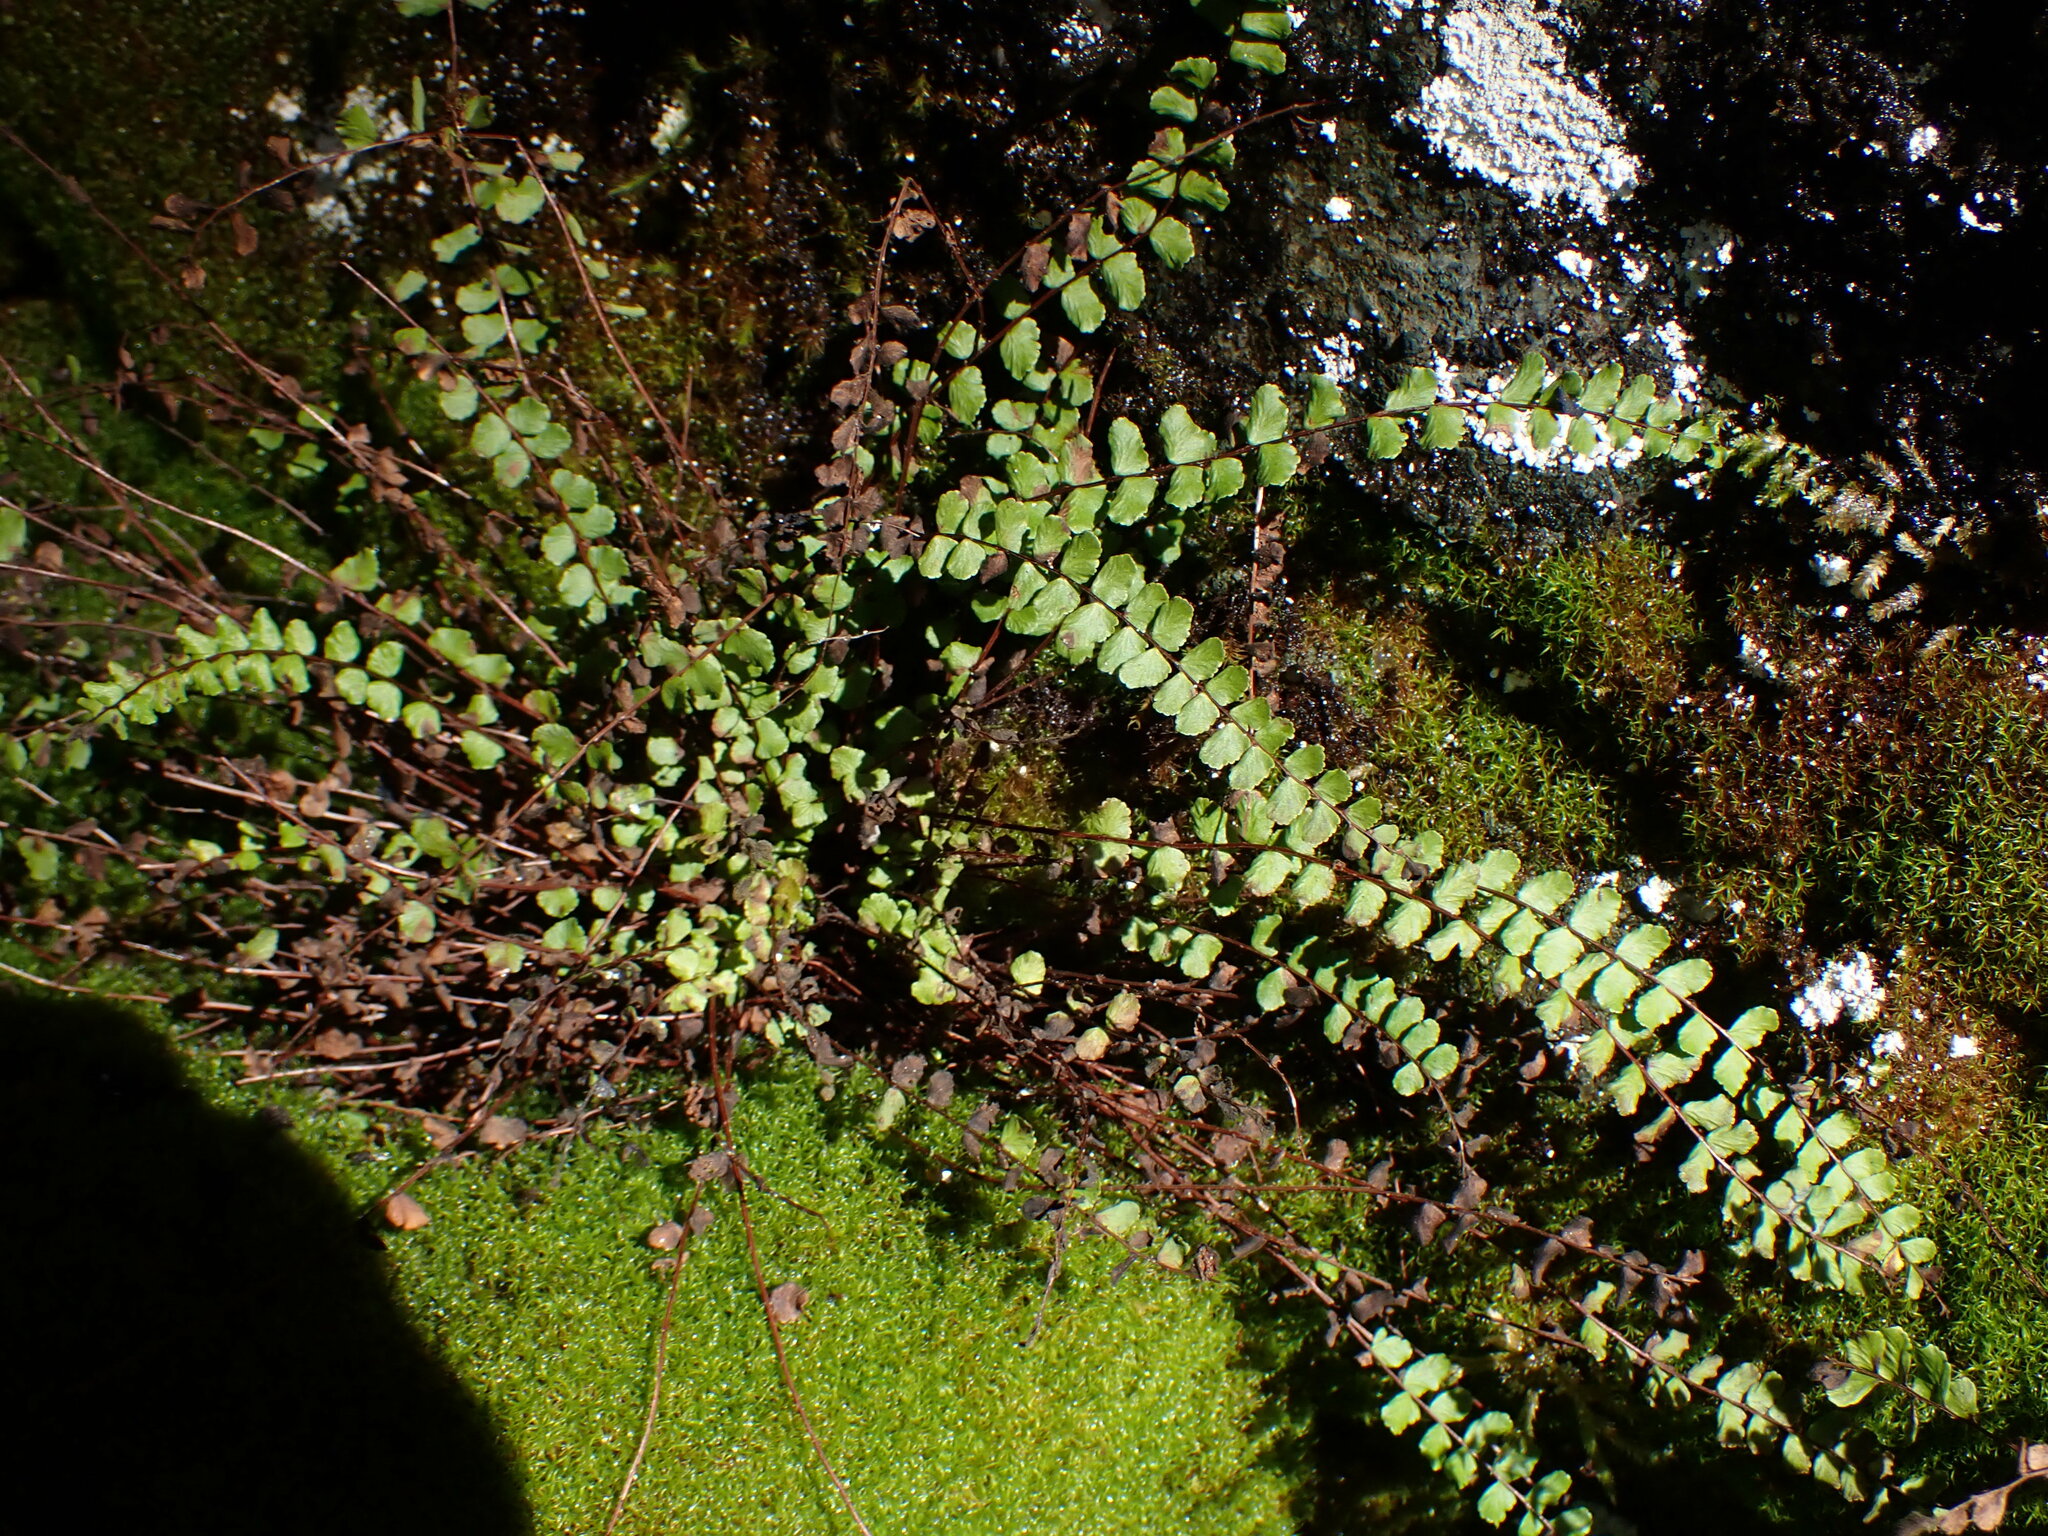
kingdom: Plantae
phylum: Tracheophyta
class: Polypodiopsida
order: Polypodiales
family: Aspleniaceae
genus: Asplenium
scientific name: Asplenium trichomanes
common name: Maidenhair spleenwort
